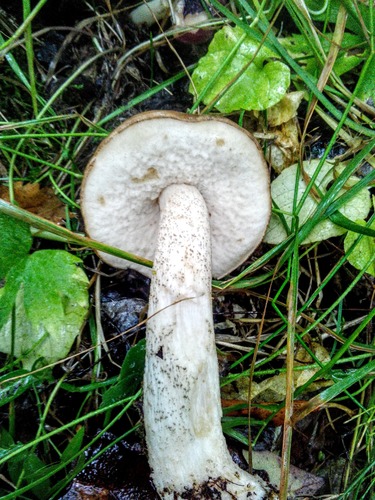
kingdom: Fungi
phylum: Basidiomycota
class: Agaricomycetes
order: Boletales
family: Boletaceae
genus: Leccinum
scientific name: Leccinum scabrum
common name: Blushing bolete
